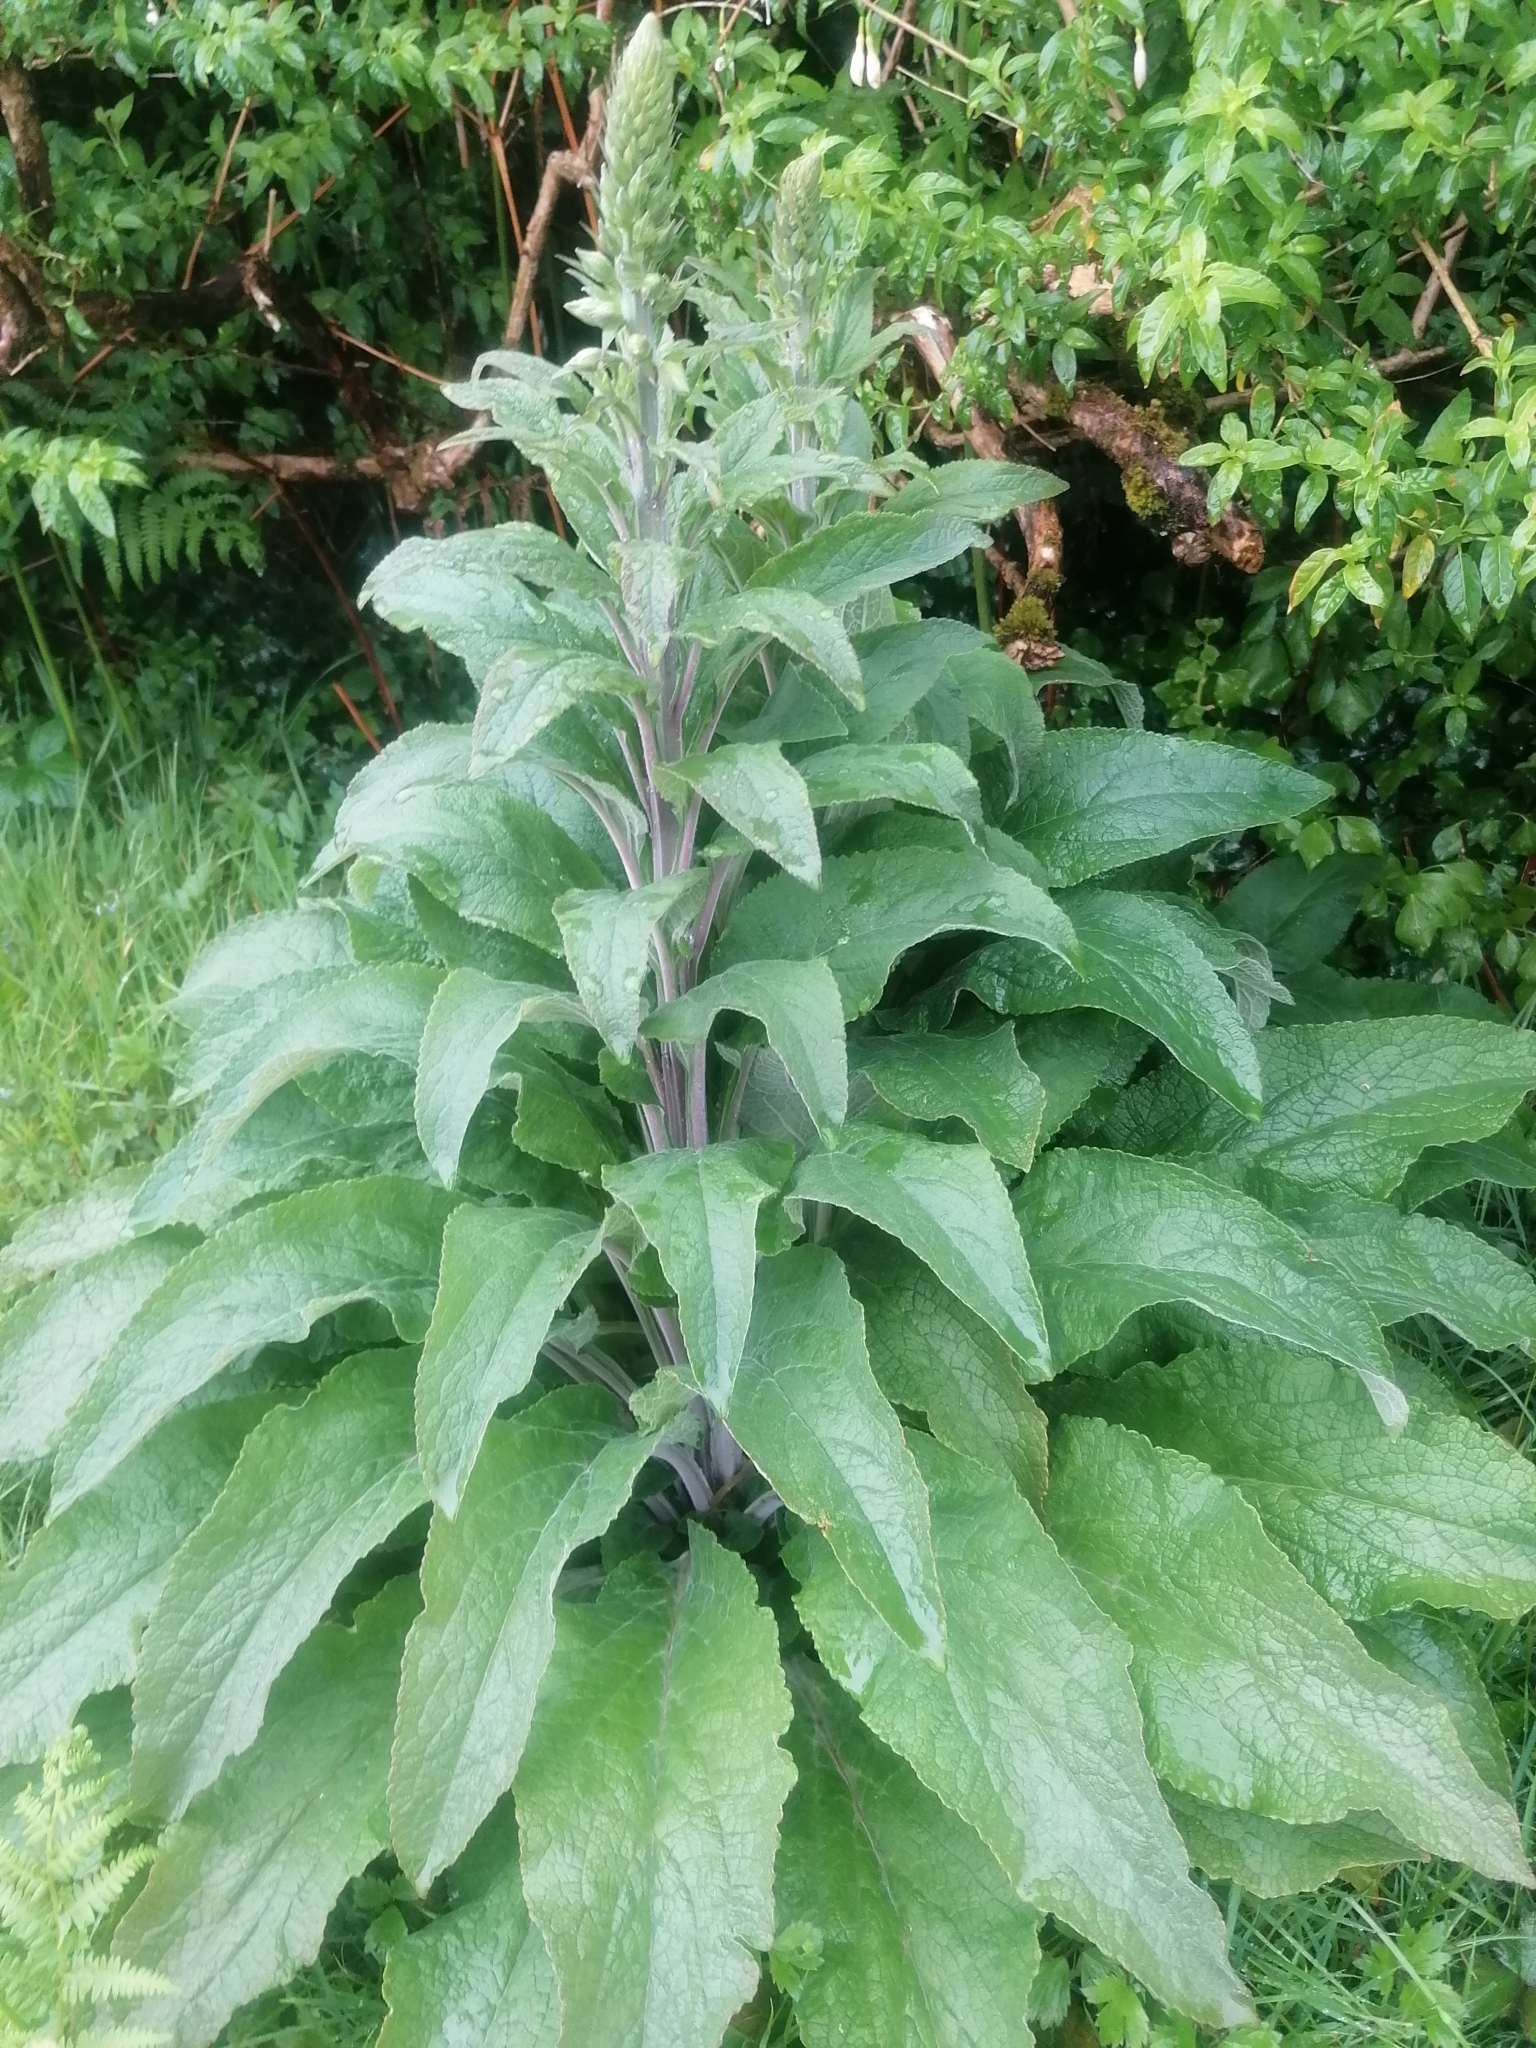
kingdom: Plantae
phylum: Tracheophyta
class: Magnoliopsida
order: Lamiales
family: Plantaginaceae
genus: Digitalis
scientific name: Digitalis purpurea
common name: Foxglove
